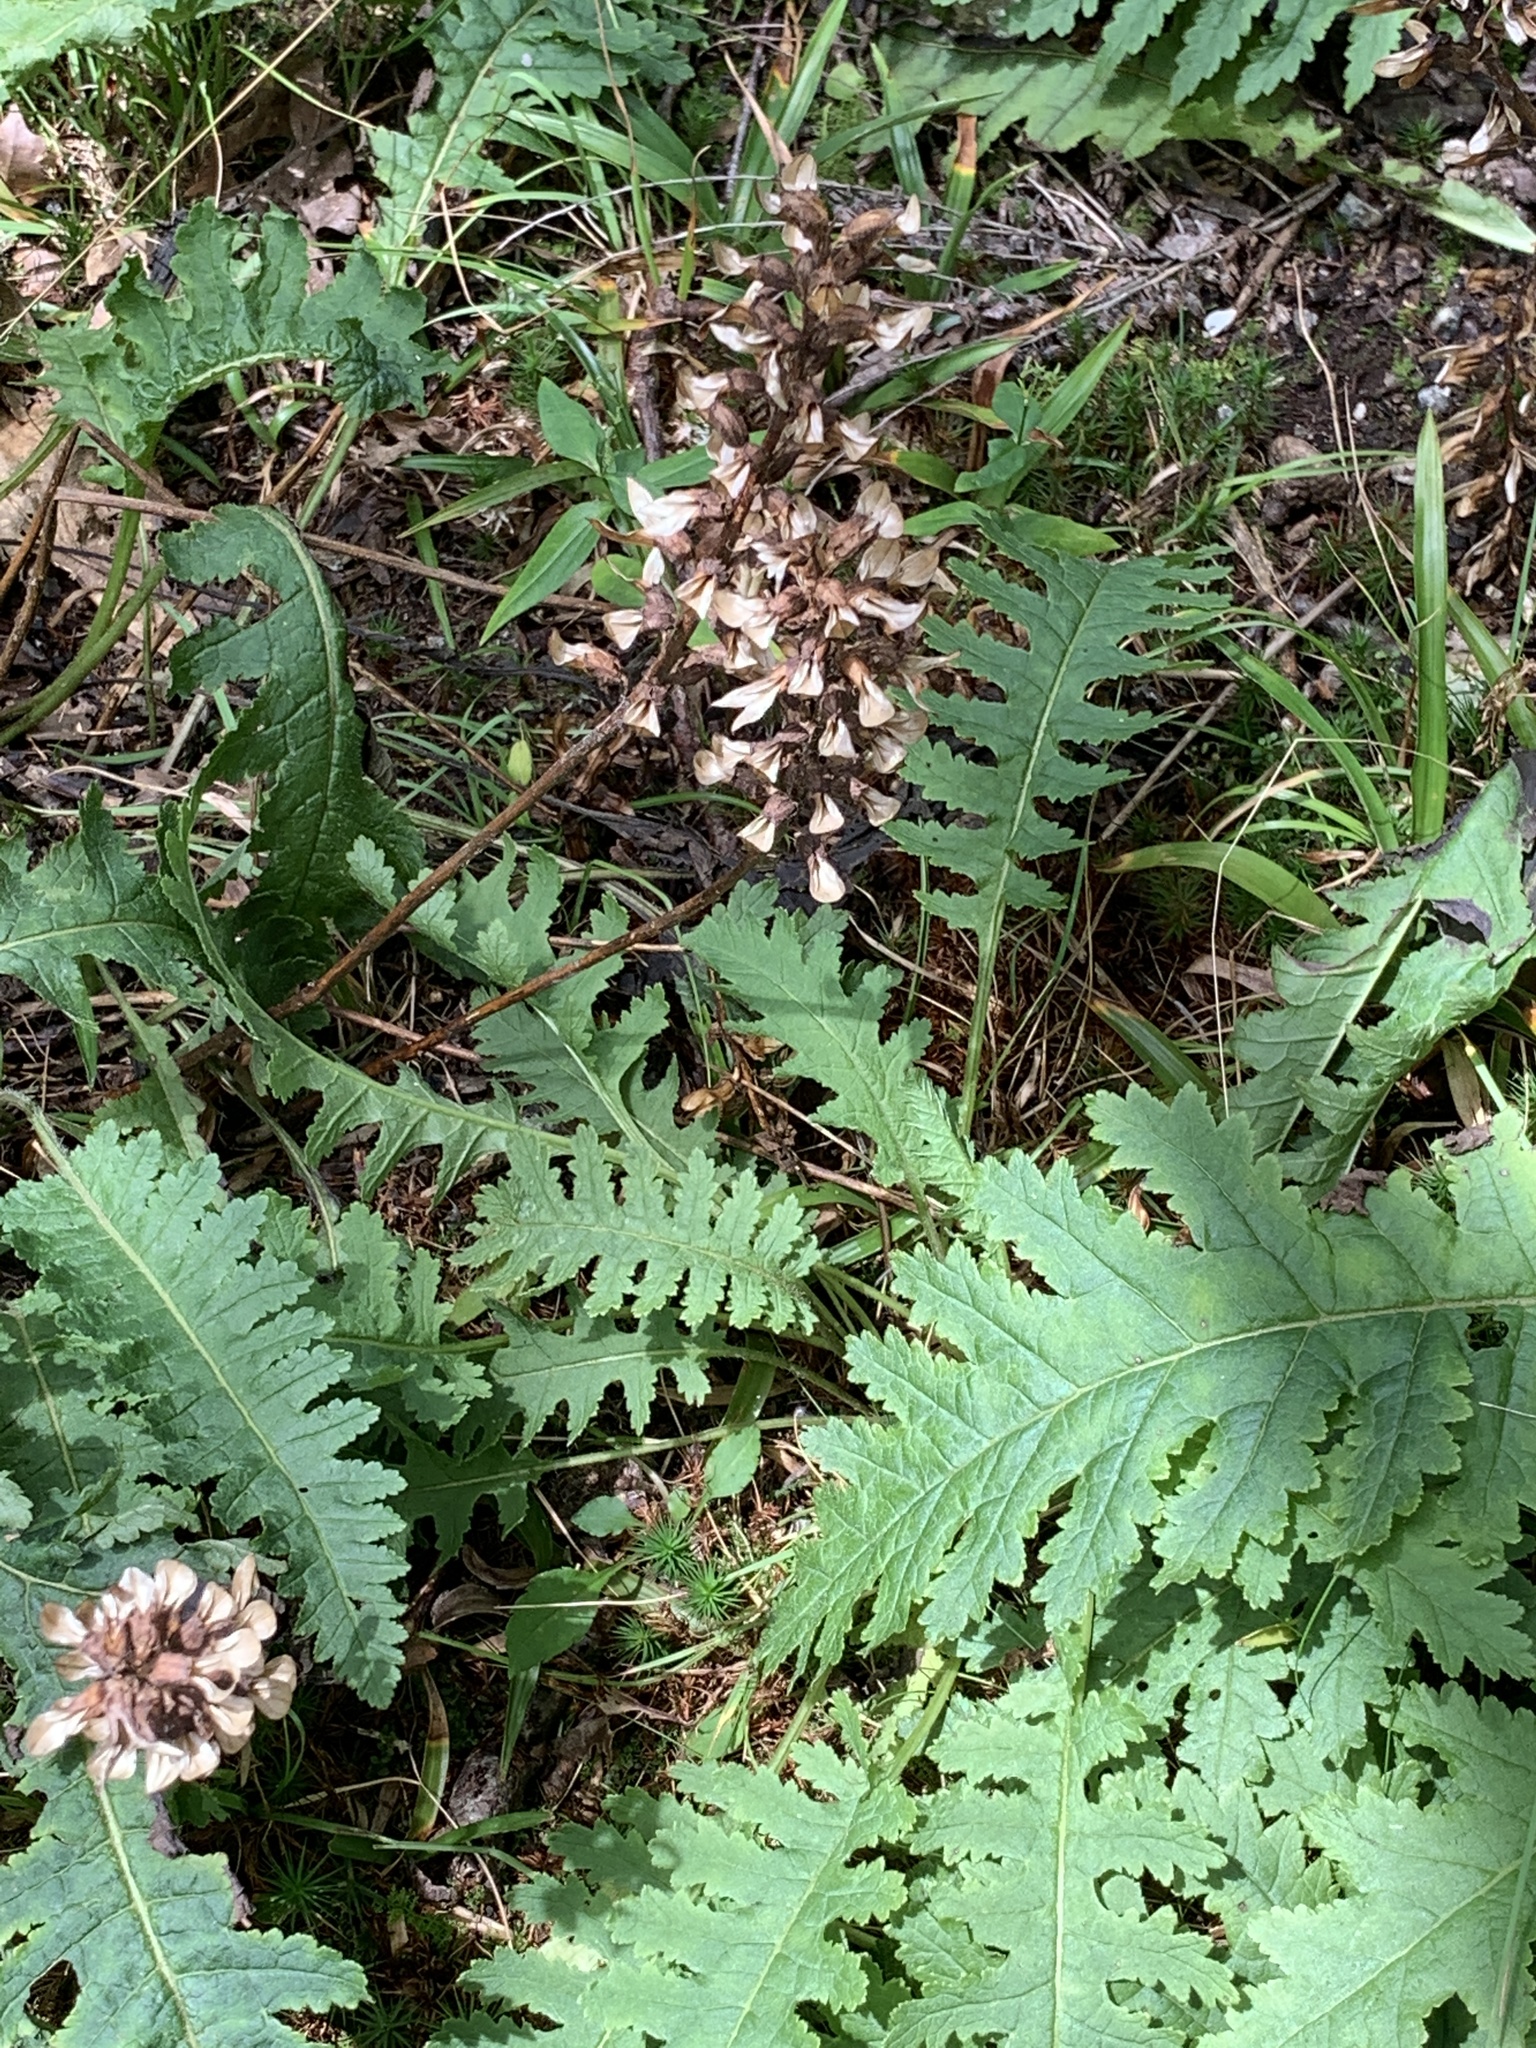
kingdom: Plantae
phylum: Tracheophyta
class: Magnoliopsida
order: Lamiales
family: Orobanchaceae
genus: Pedicularis
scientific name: Pedicularis canadensis
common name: Early lousewort
